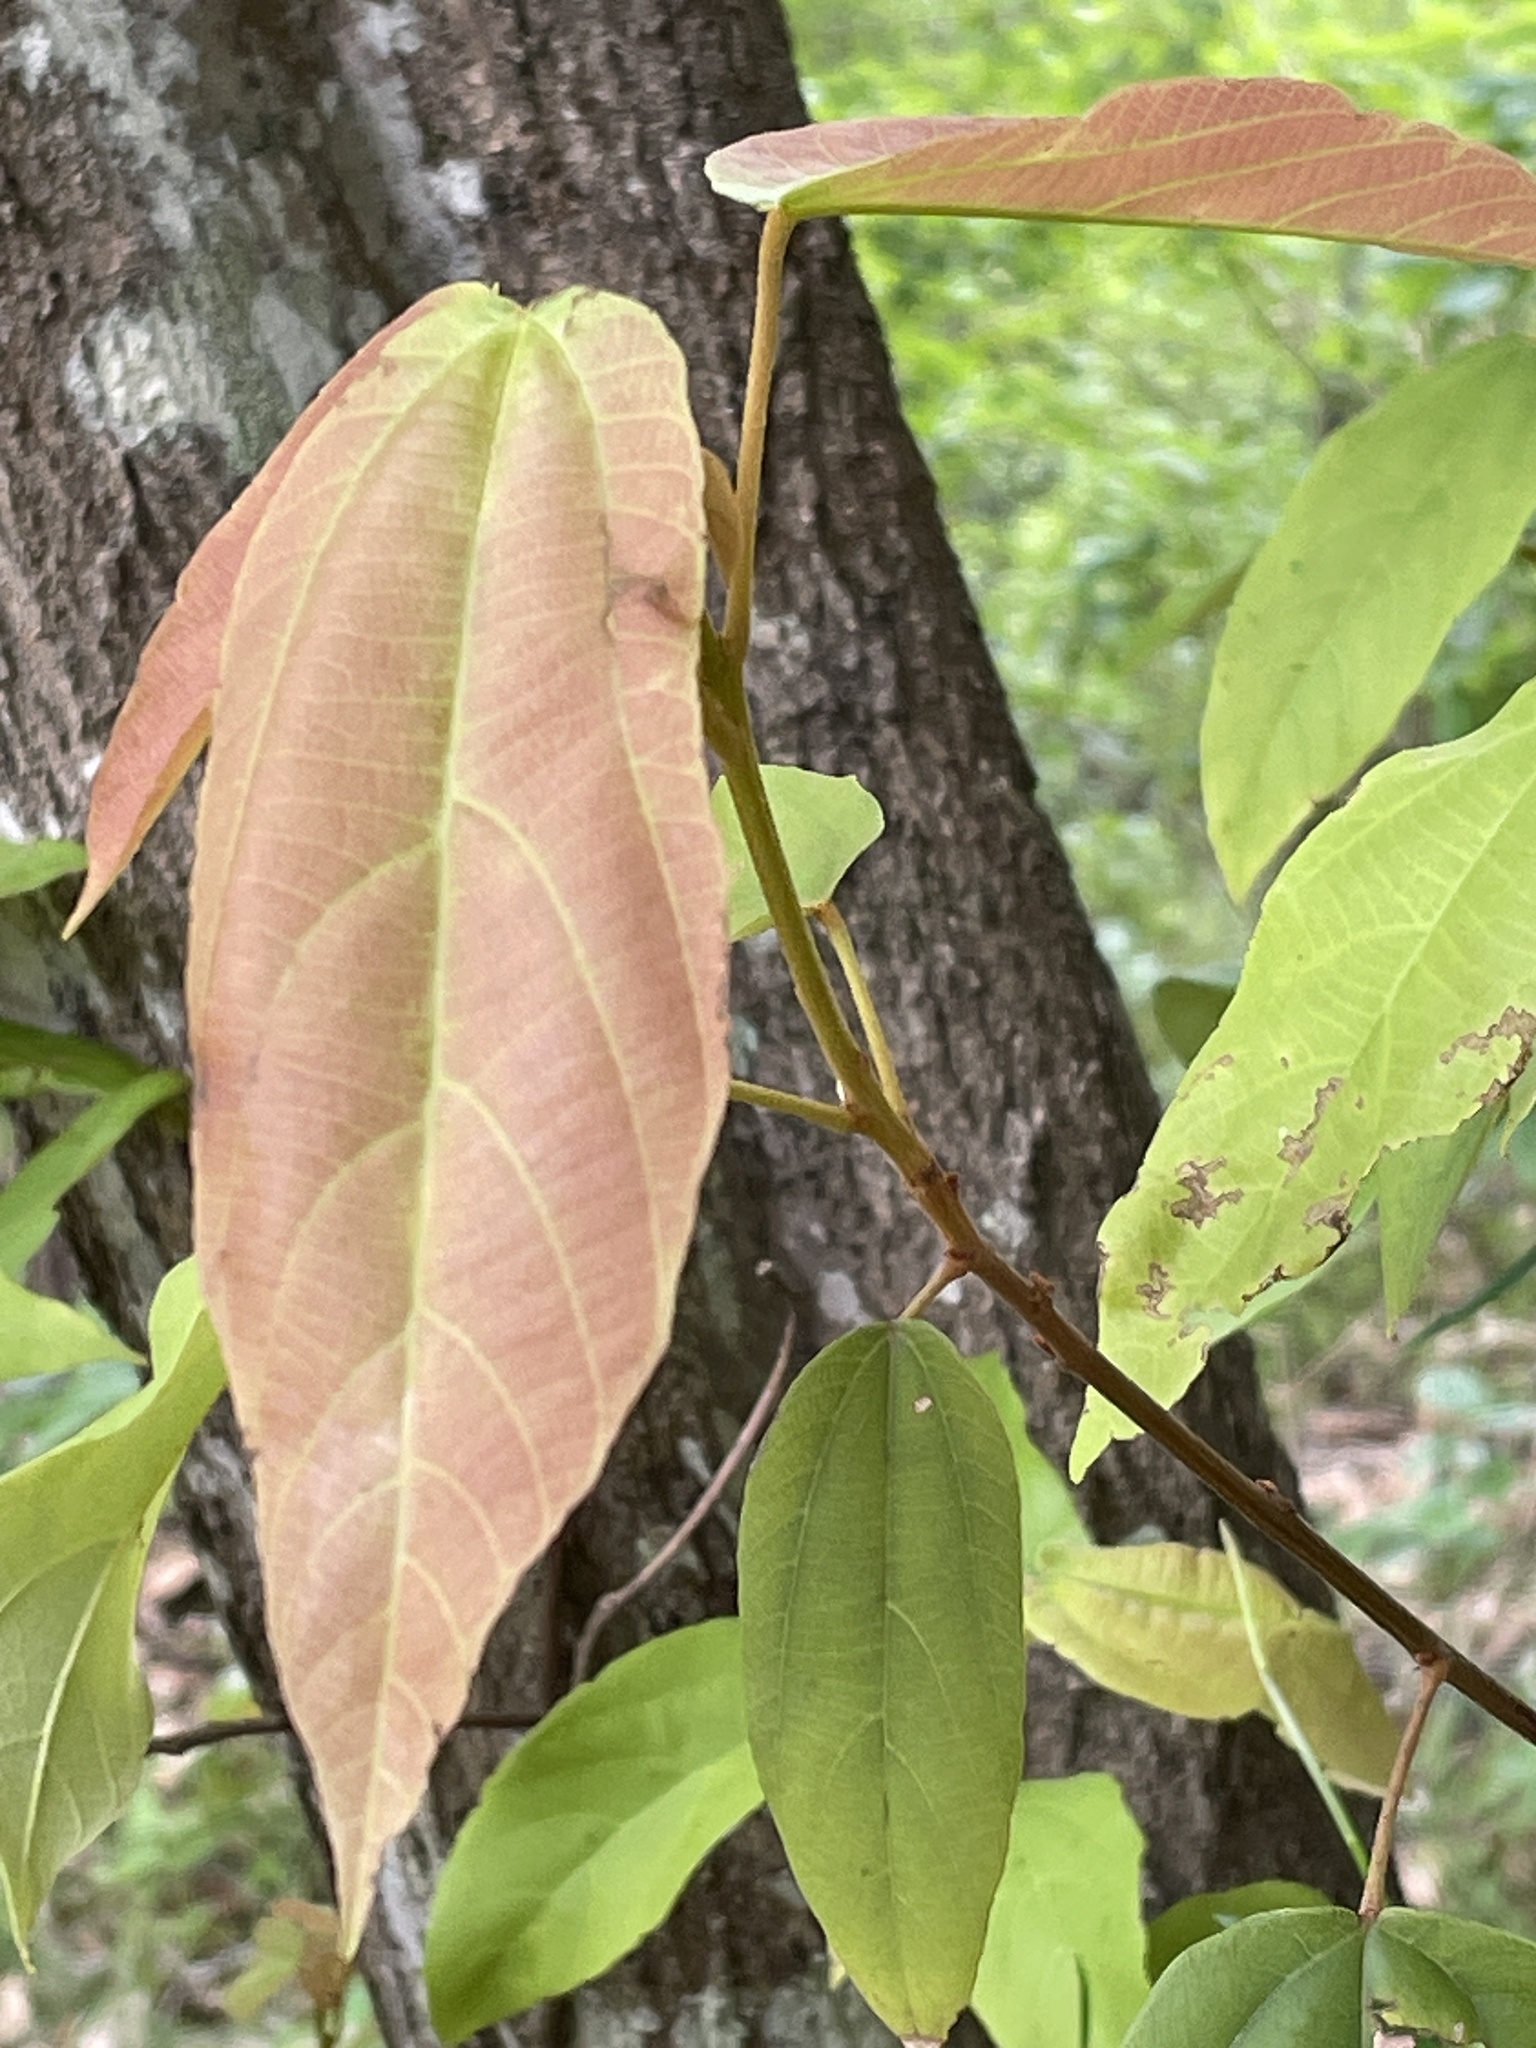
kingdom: Plantae
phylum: Tracheophyta
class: Magnoliopsida
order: Malpighiales
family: Euphorbiaceae
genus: Mallotus
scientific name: Mallotus philippensis
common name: Kamala tree
